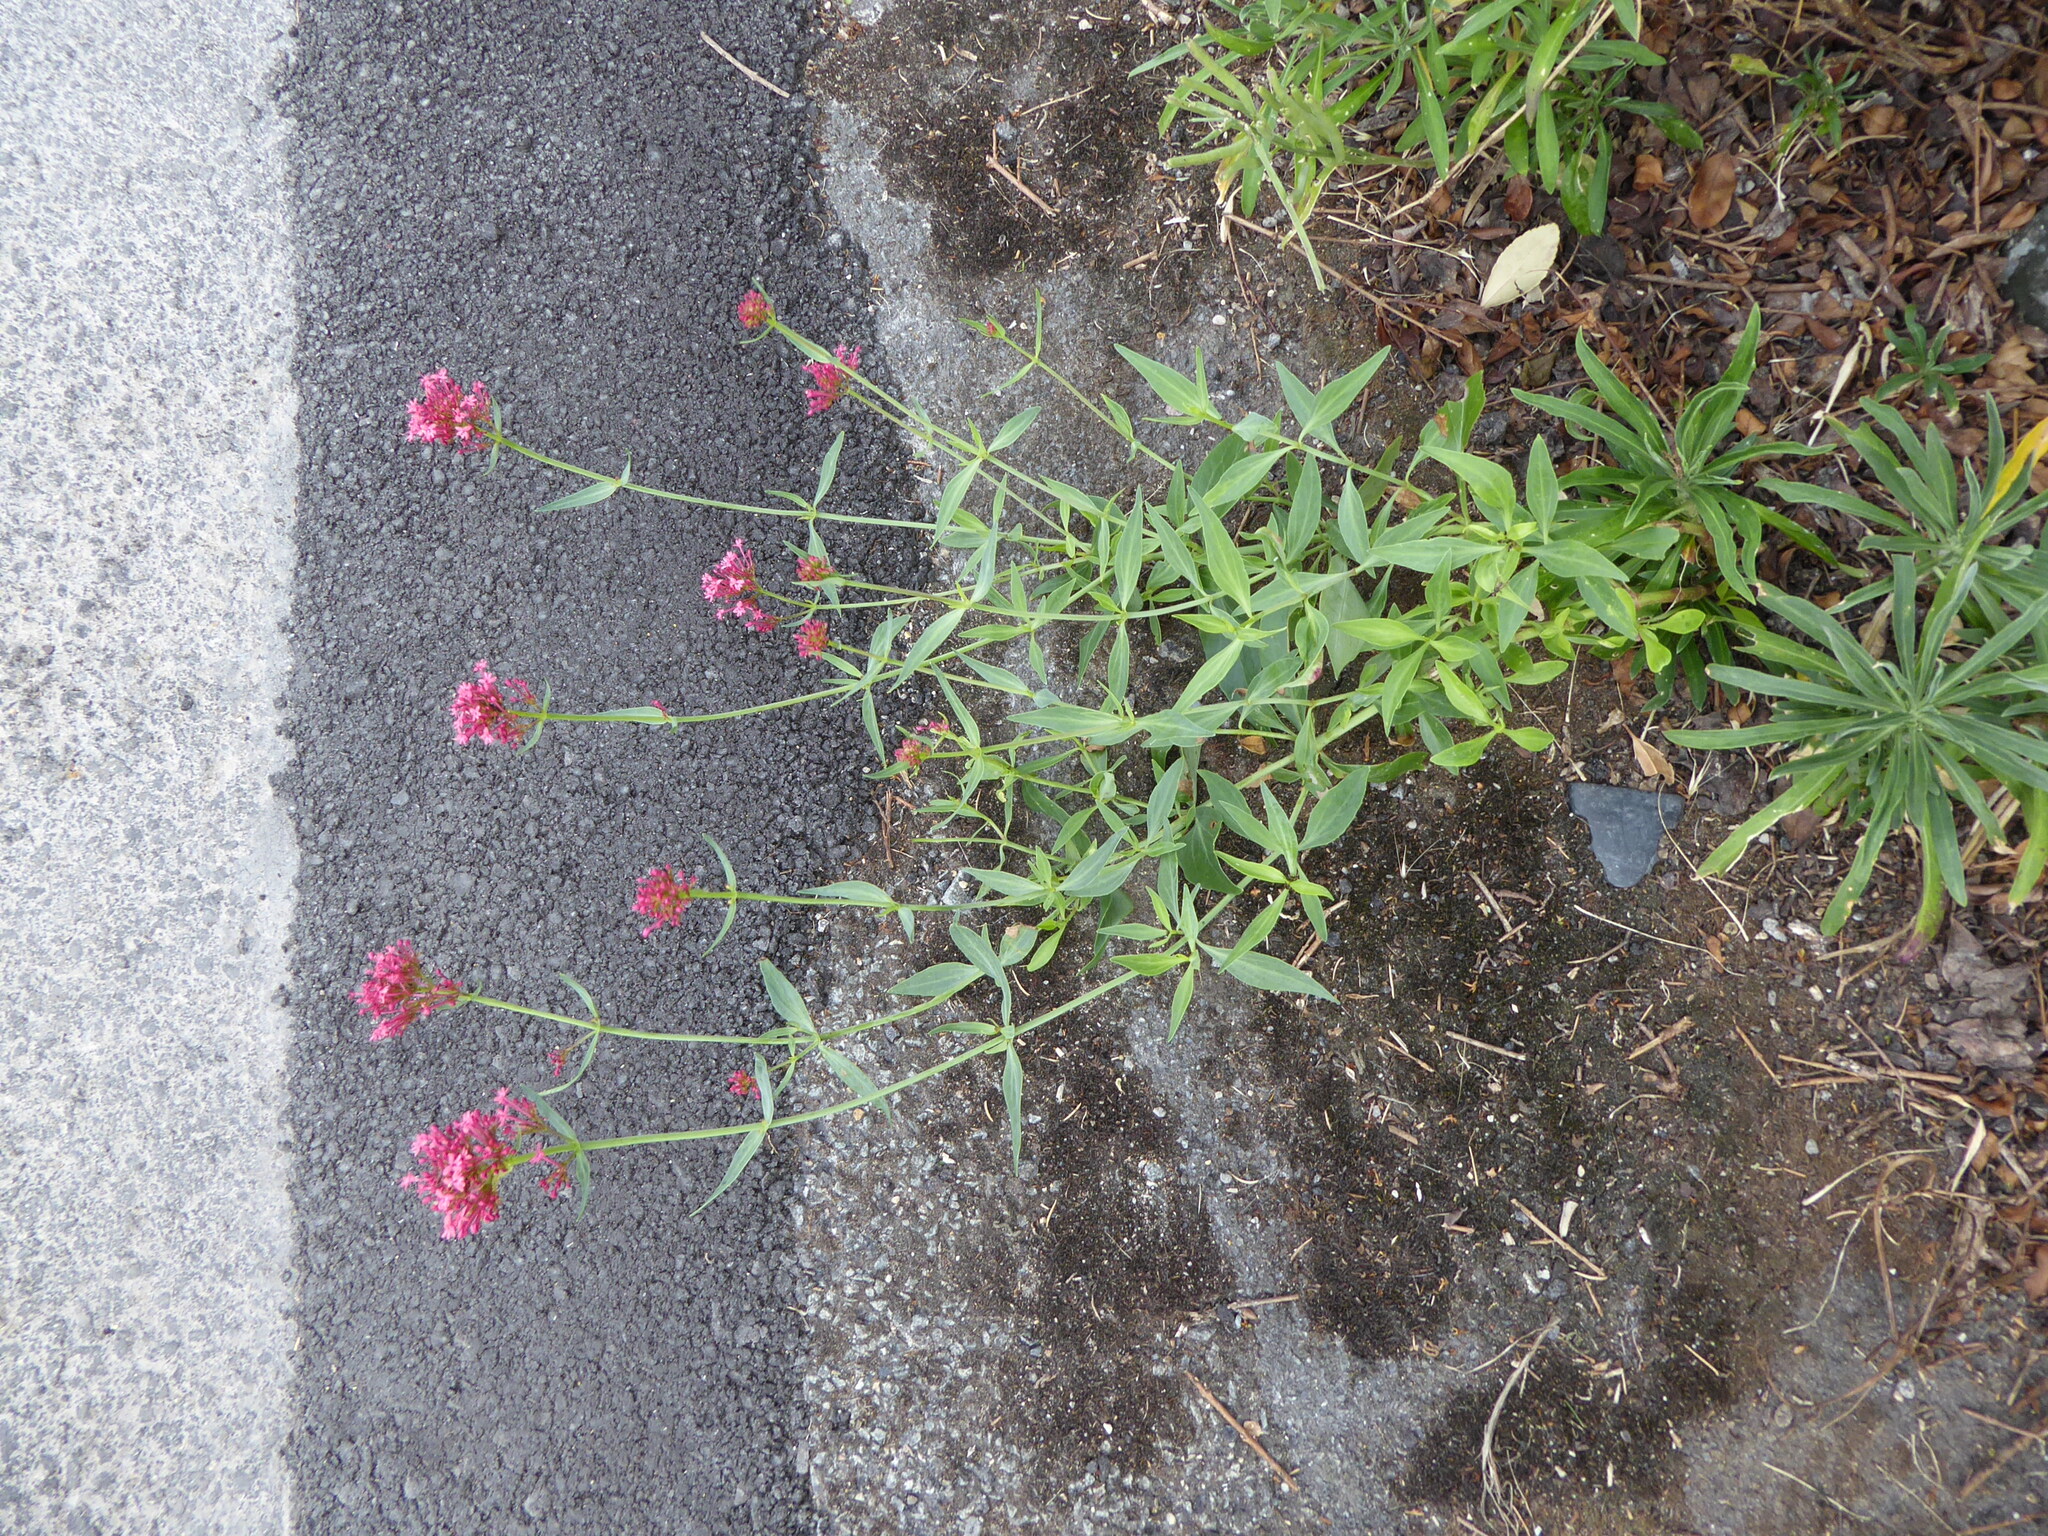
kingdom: Plantae
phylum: Tracheophyta
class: Magnoliopsida
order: Dipsacales
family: Caprifoliaceae
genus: Centranthus
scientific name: Centranthus ruber
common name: Red valerian
